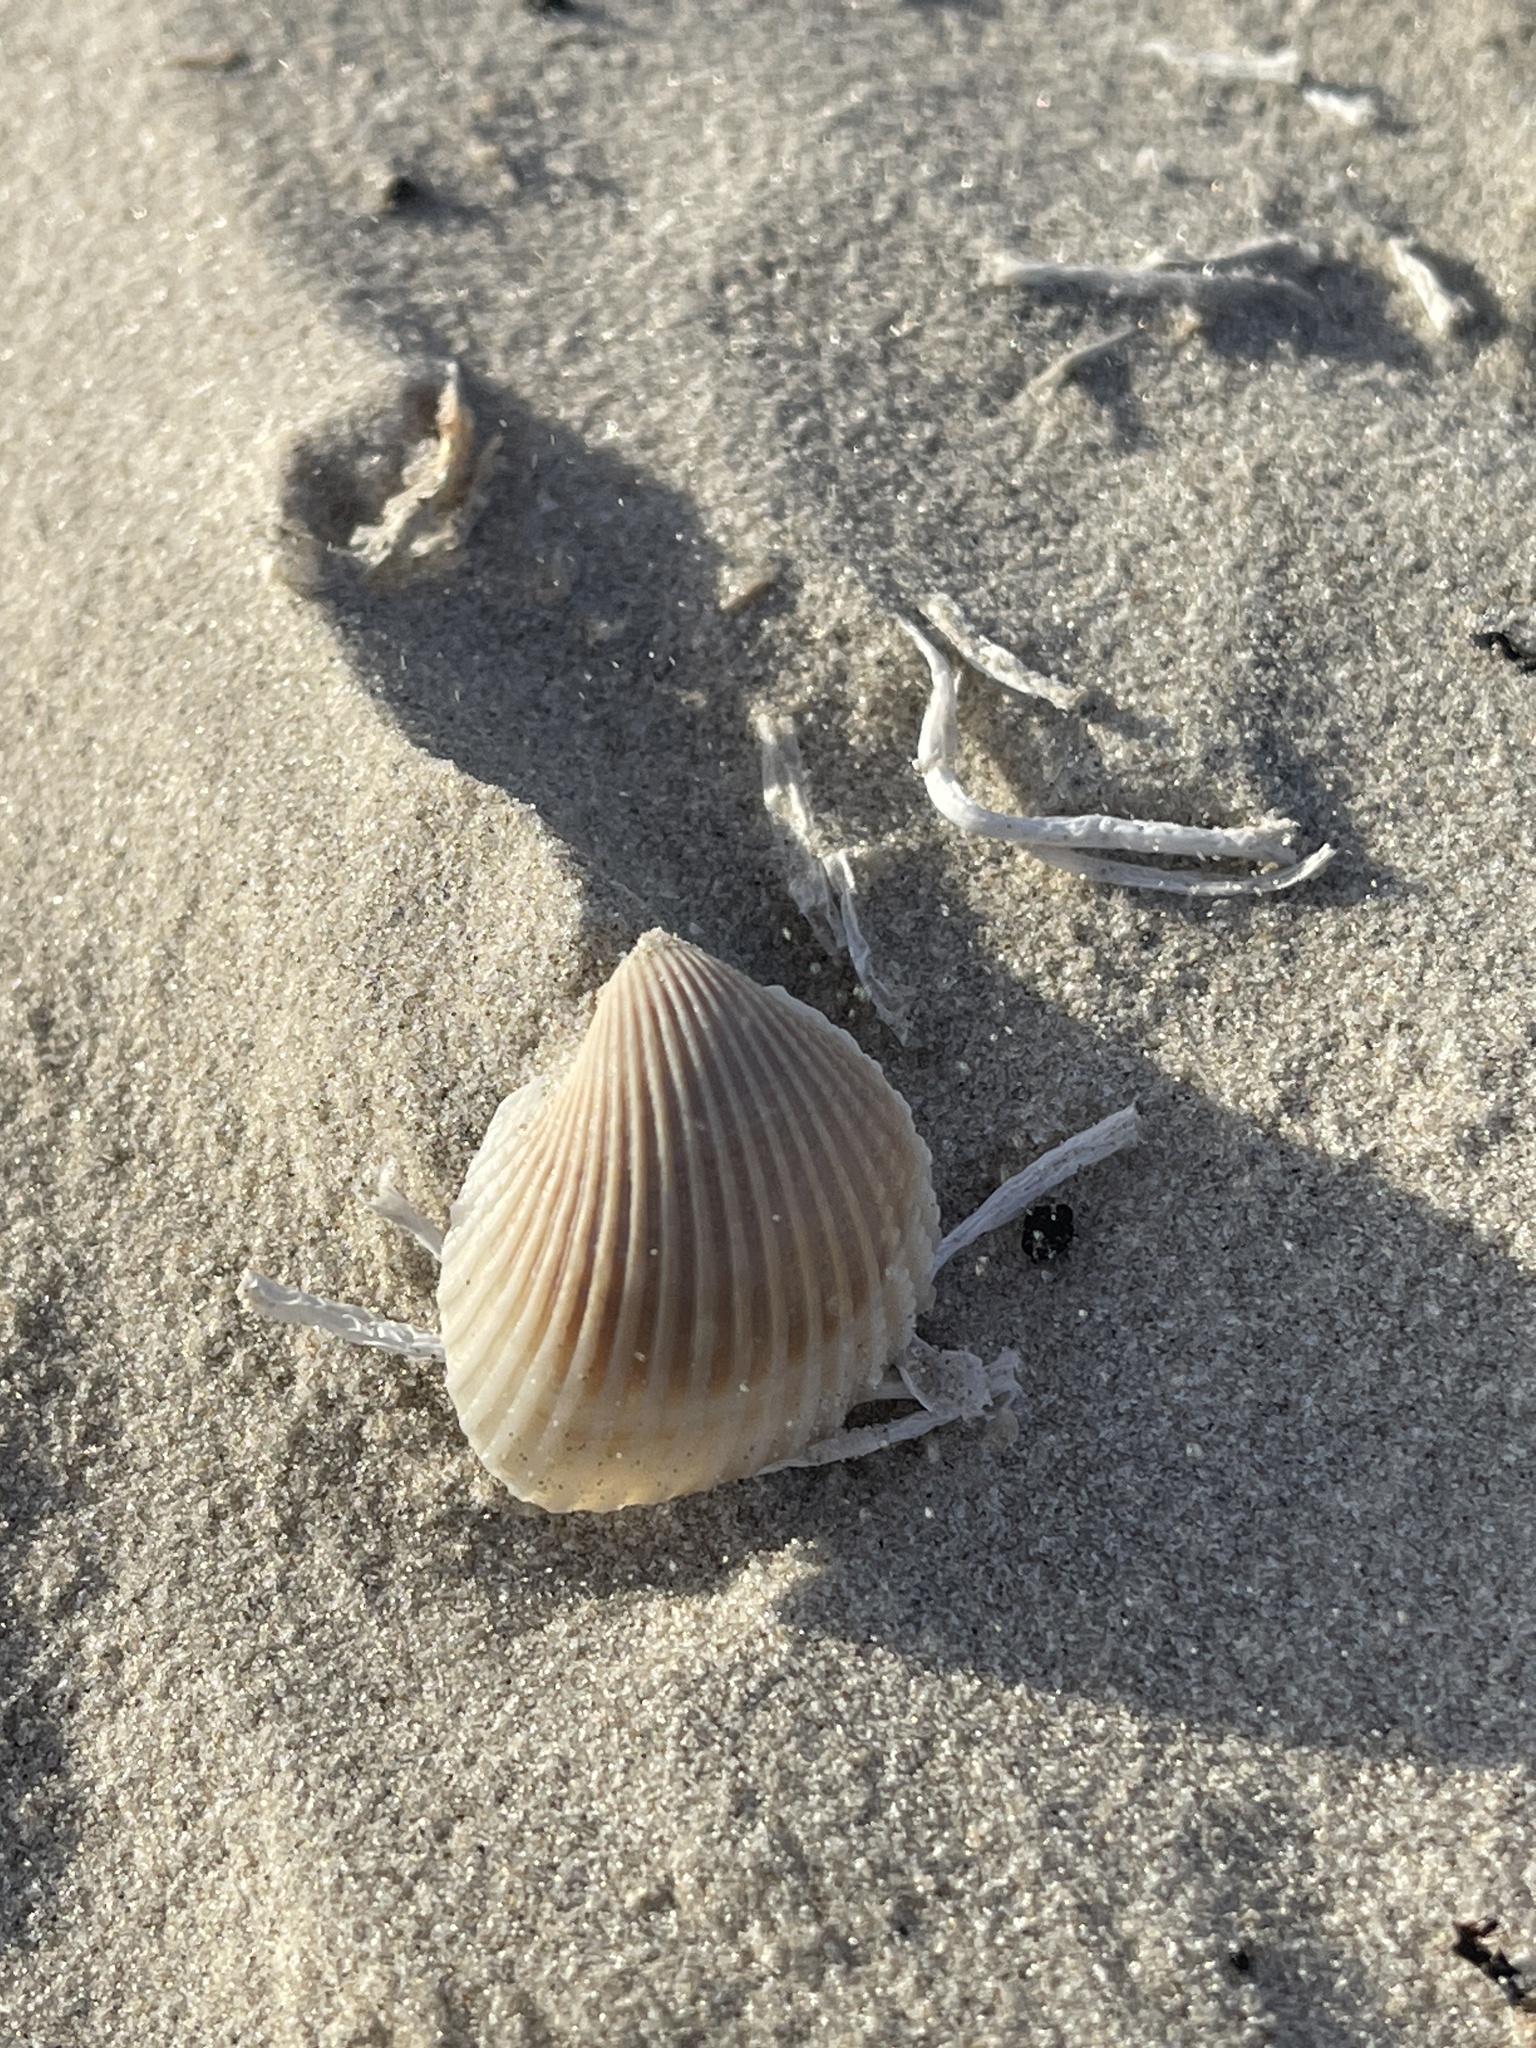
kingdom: Animalia
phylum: Mollusca
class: Bivalvia
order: Arcida
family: Arcidae
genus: Anadara
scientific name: Anadara chemnitzii
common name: Chemnitz's triangular ark
